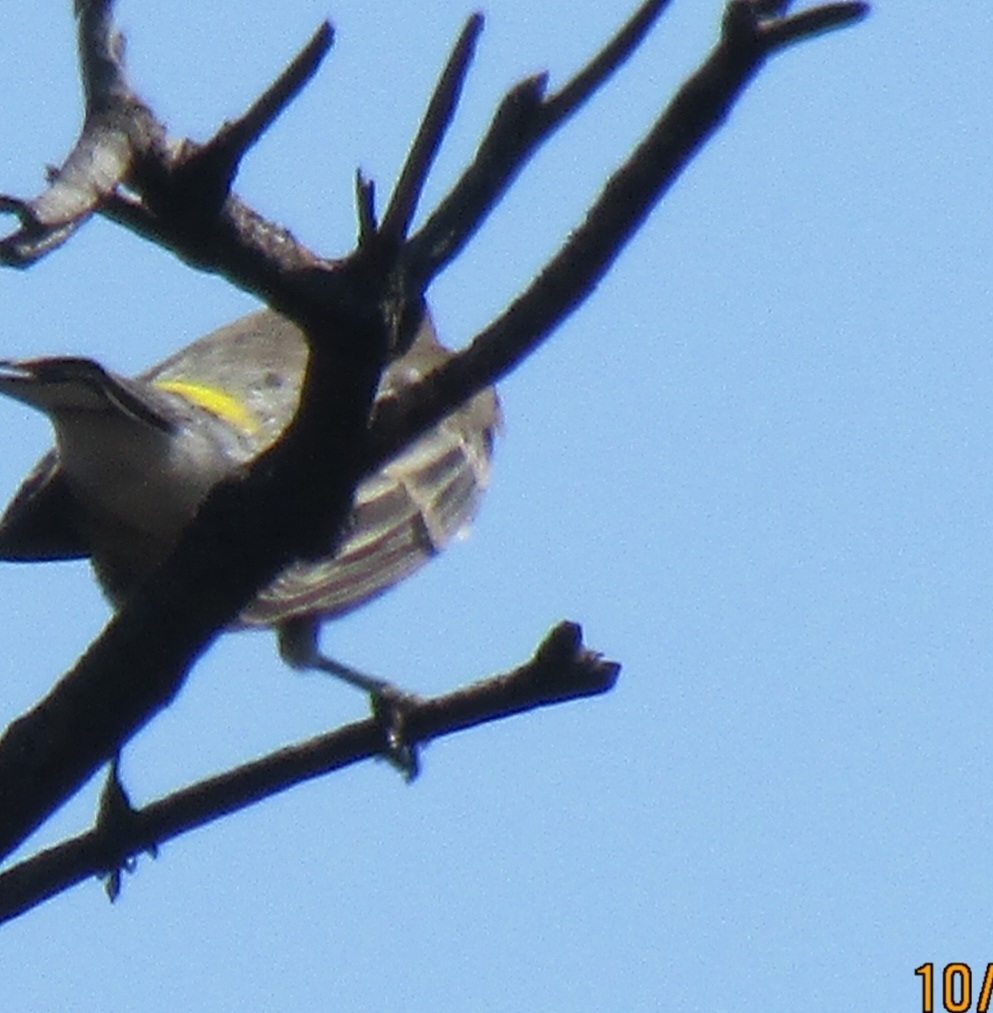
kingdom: Animalia
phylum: Chordata
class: Aves
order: Passeriformes
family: Parulidae
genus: Setophaga
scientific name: Setophaga coronata
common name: Myrtle warbler
